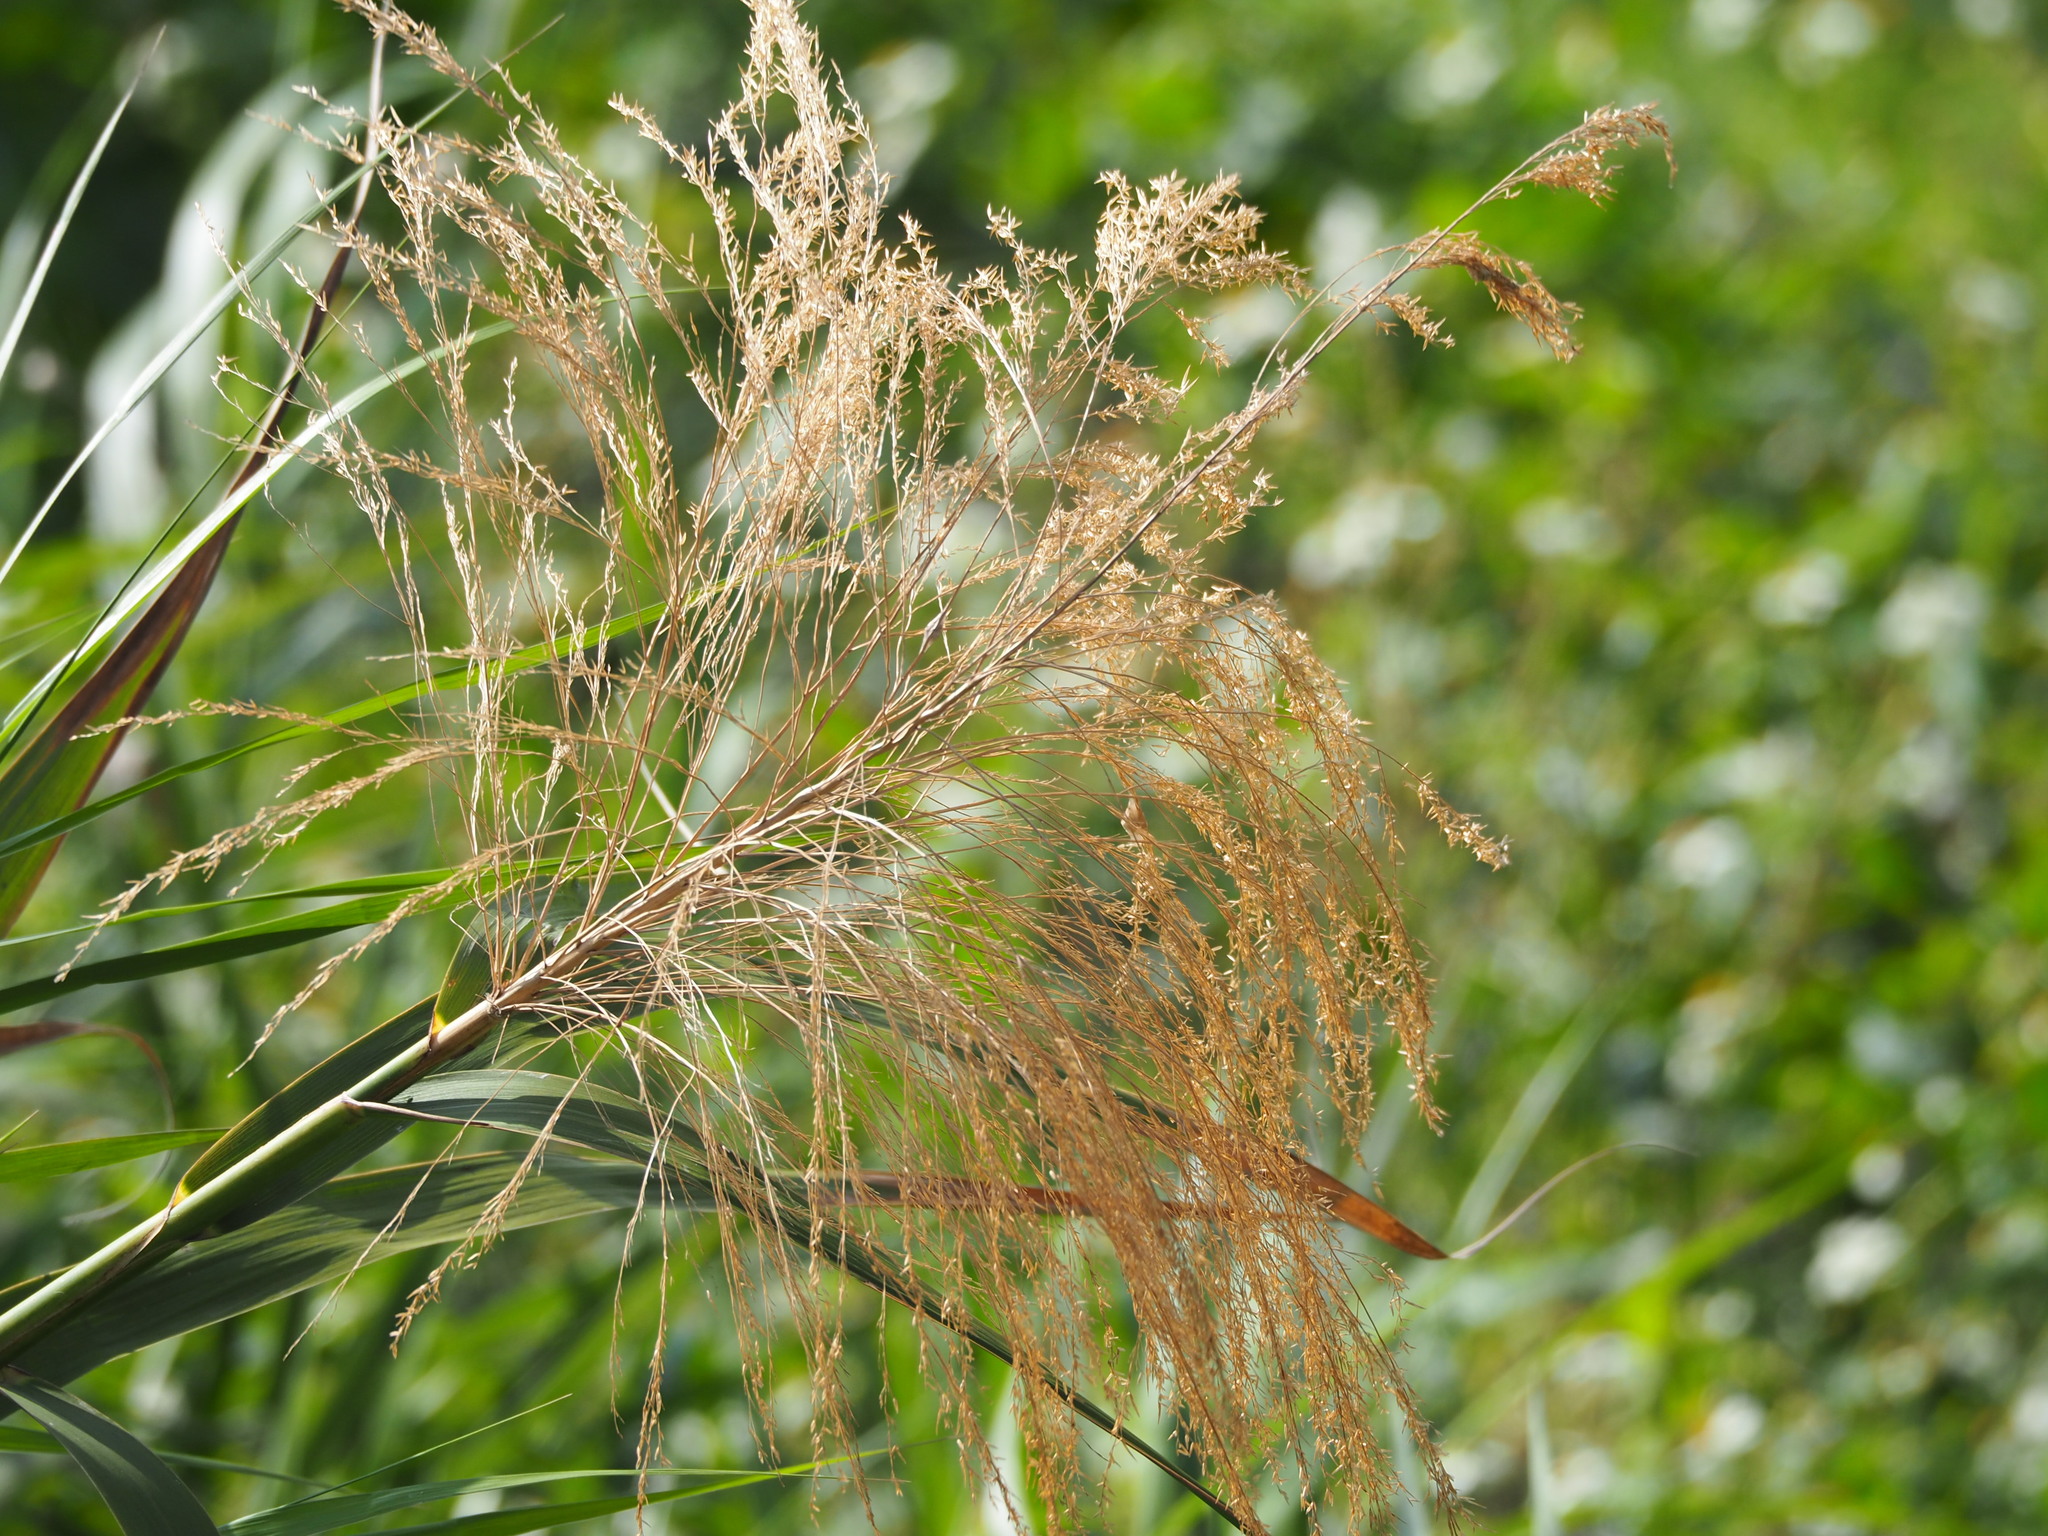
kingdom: Plantae
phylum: Tracheophyta
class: Liliopsida
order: Poales
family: Poaceae
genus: Phragmites
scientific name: Phragmites karka
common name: Tropical reed
